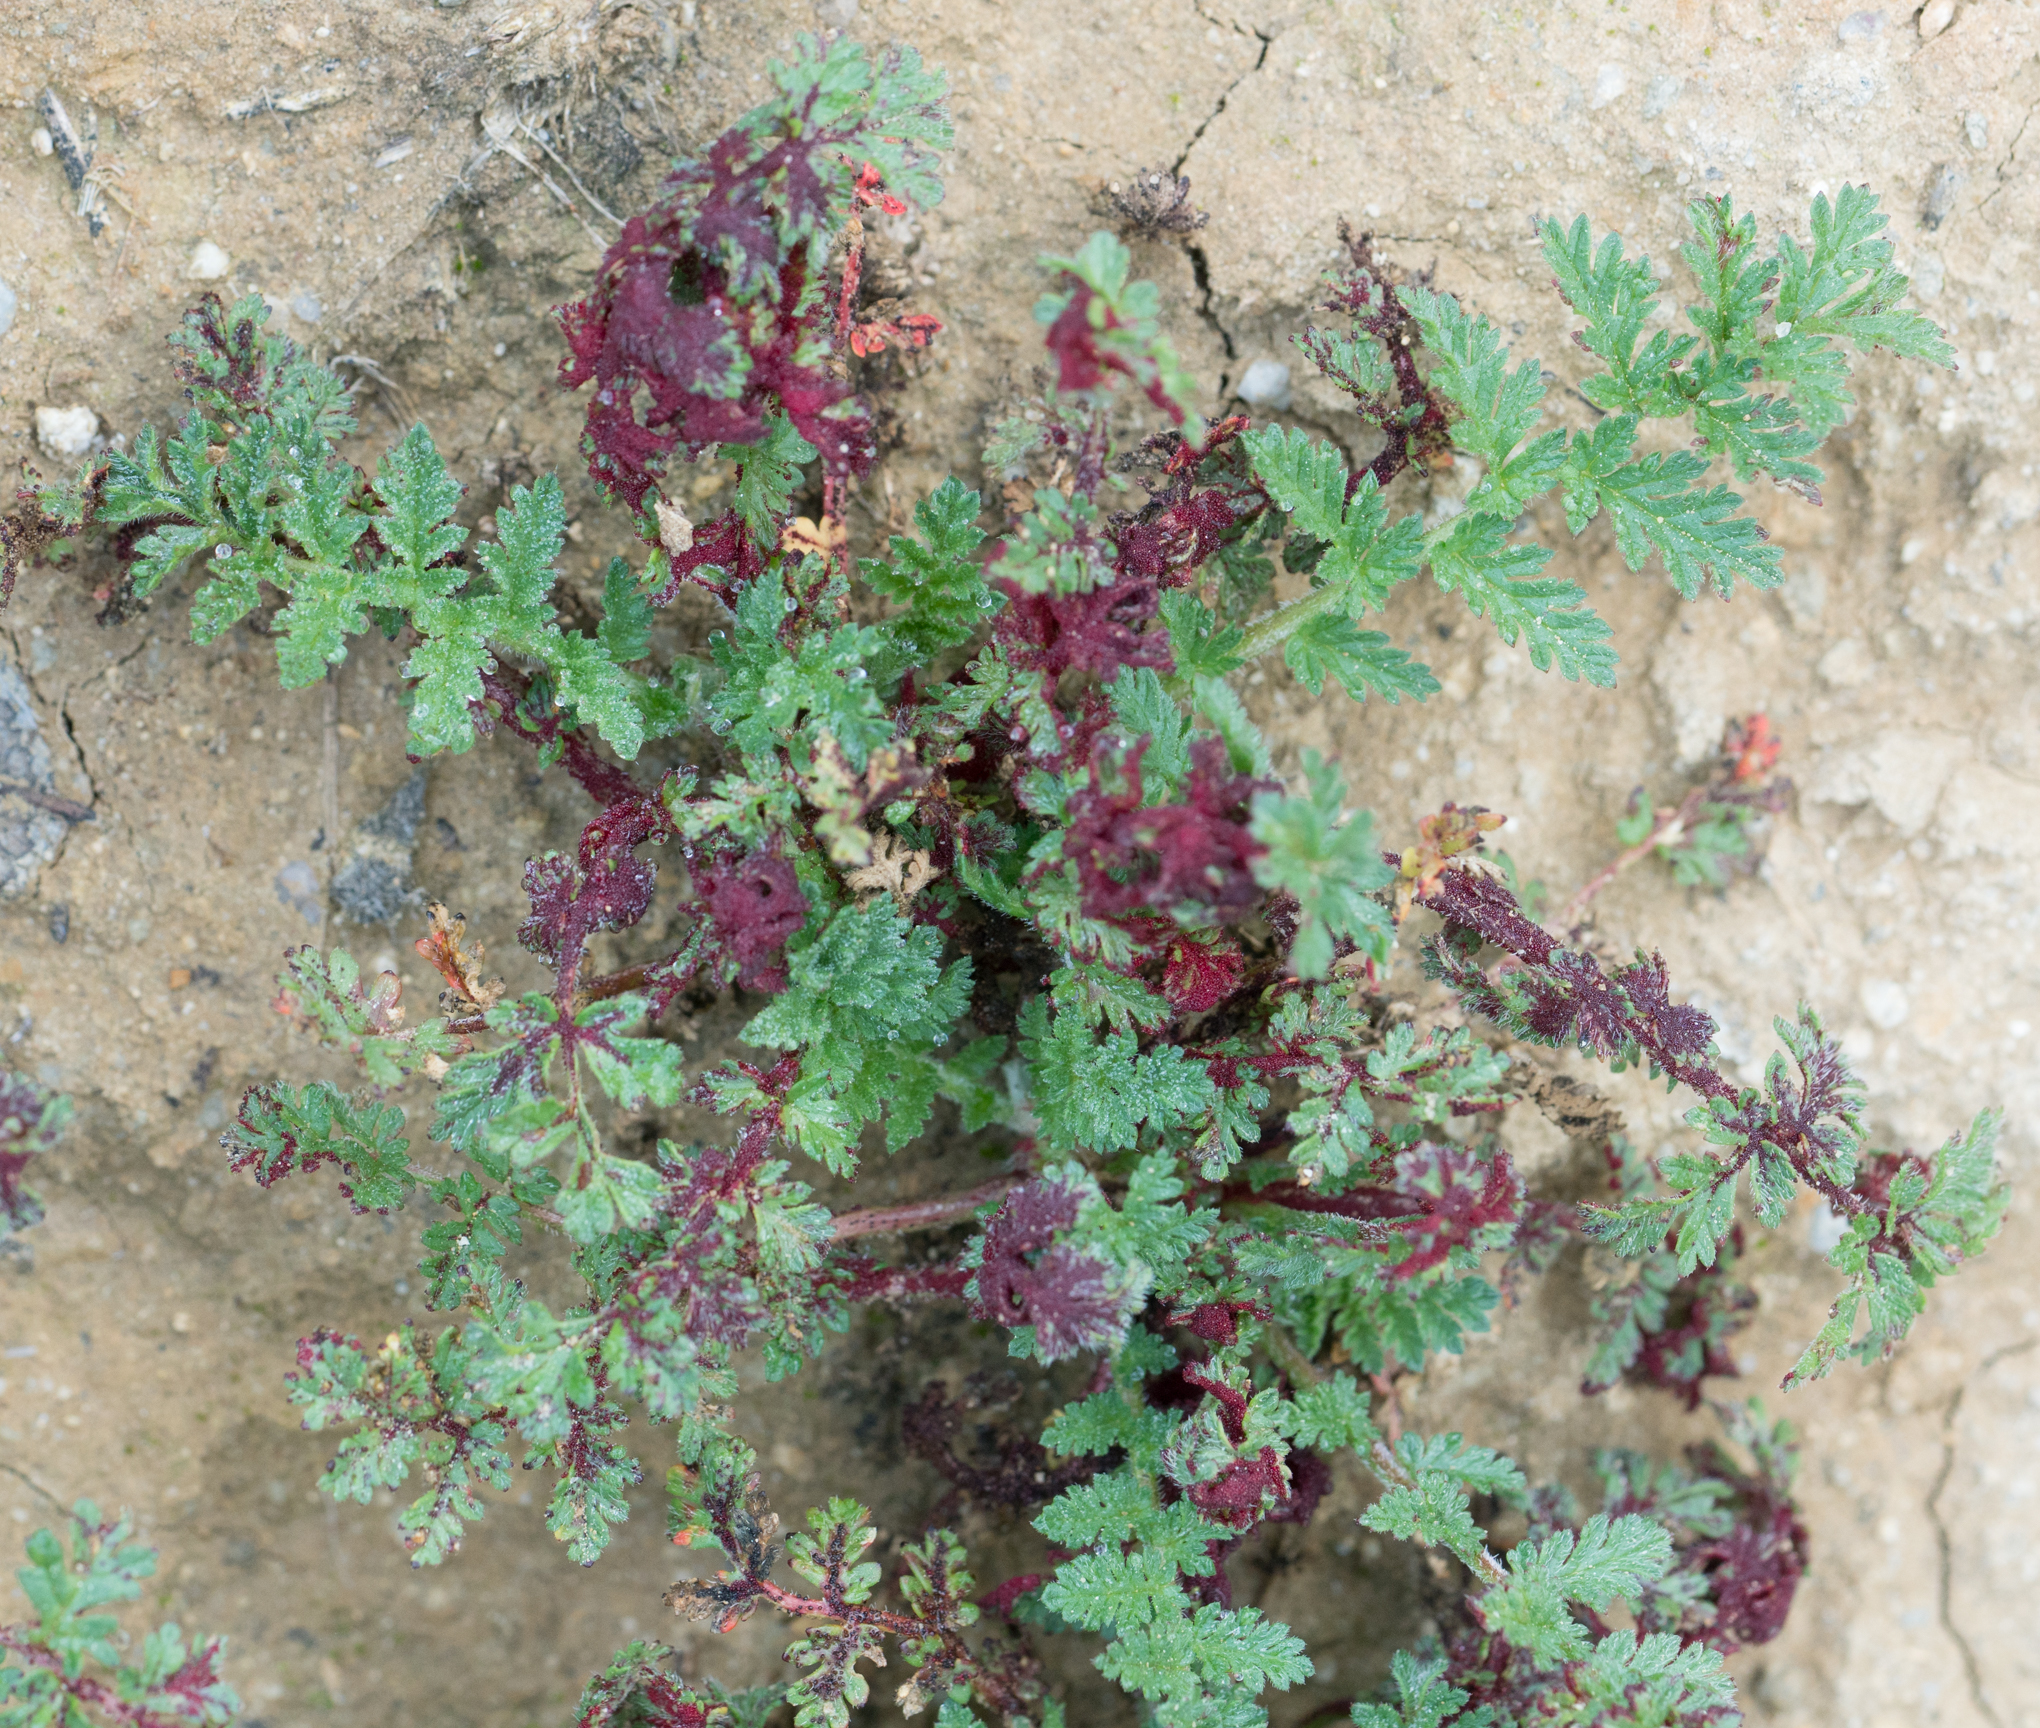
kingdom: Fungi
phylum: Chytridiomycota
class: Chytridiomycetes
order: Chytridiales
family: Synchytriaceae
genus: Synchytrium
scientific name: Synchytrium papillatum
